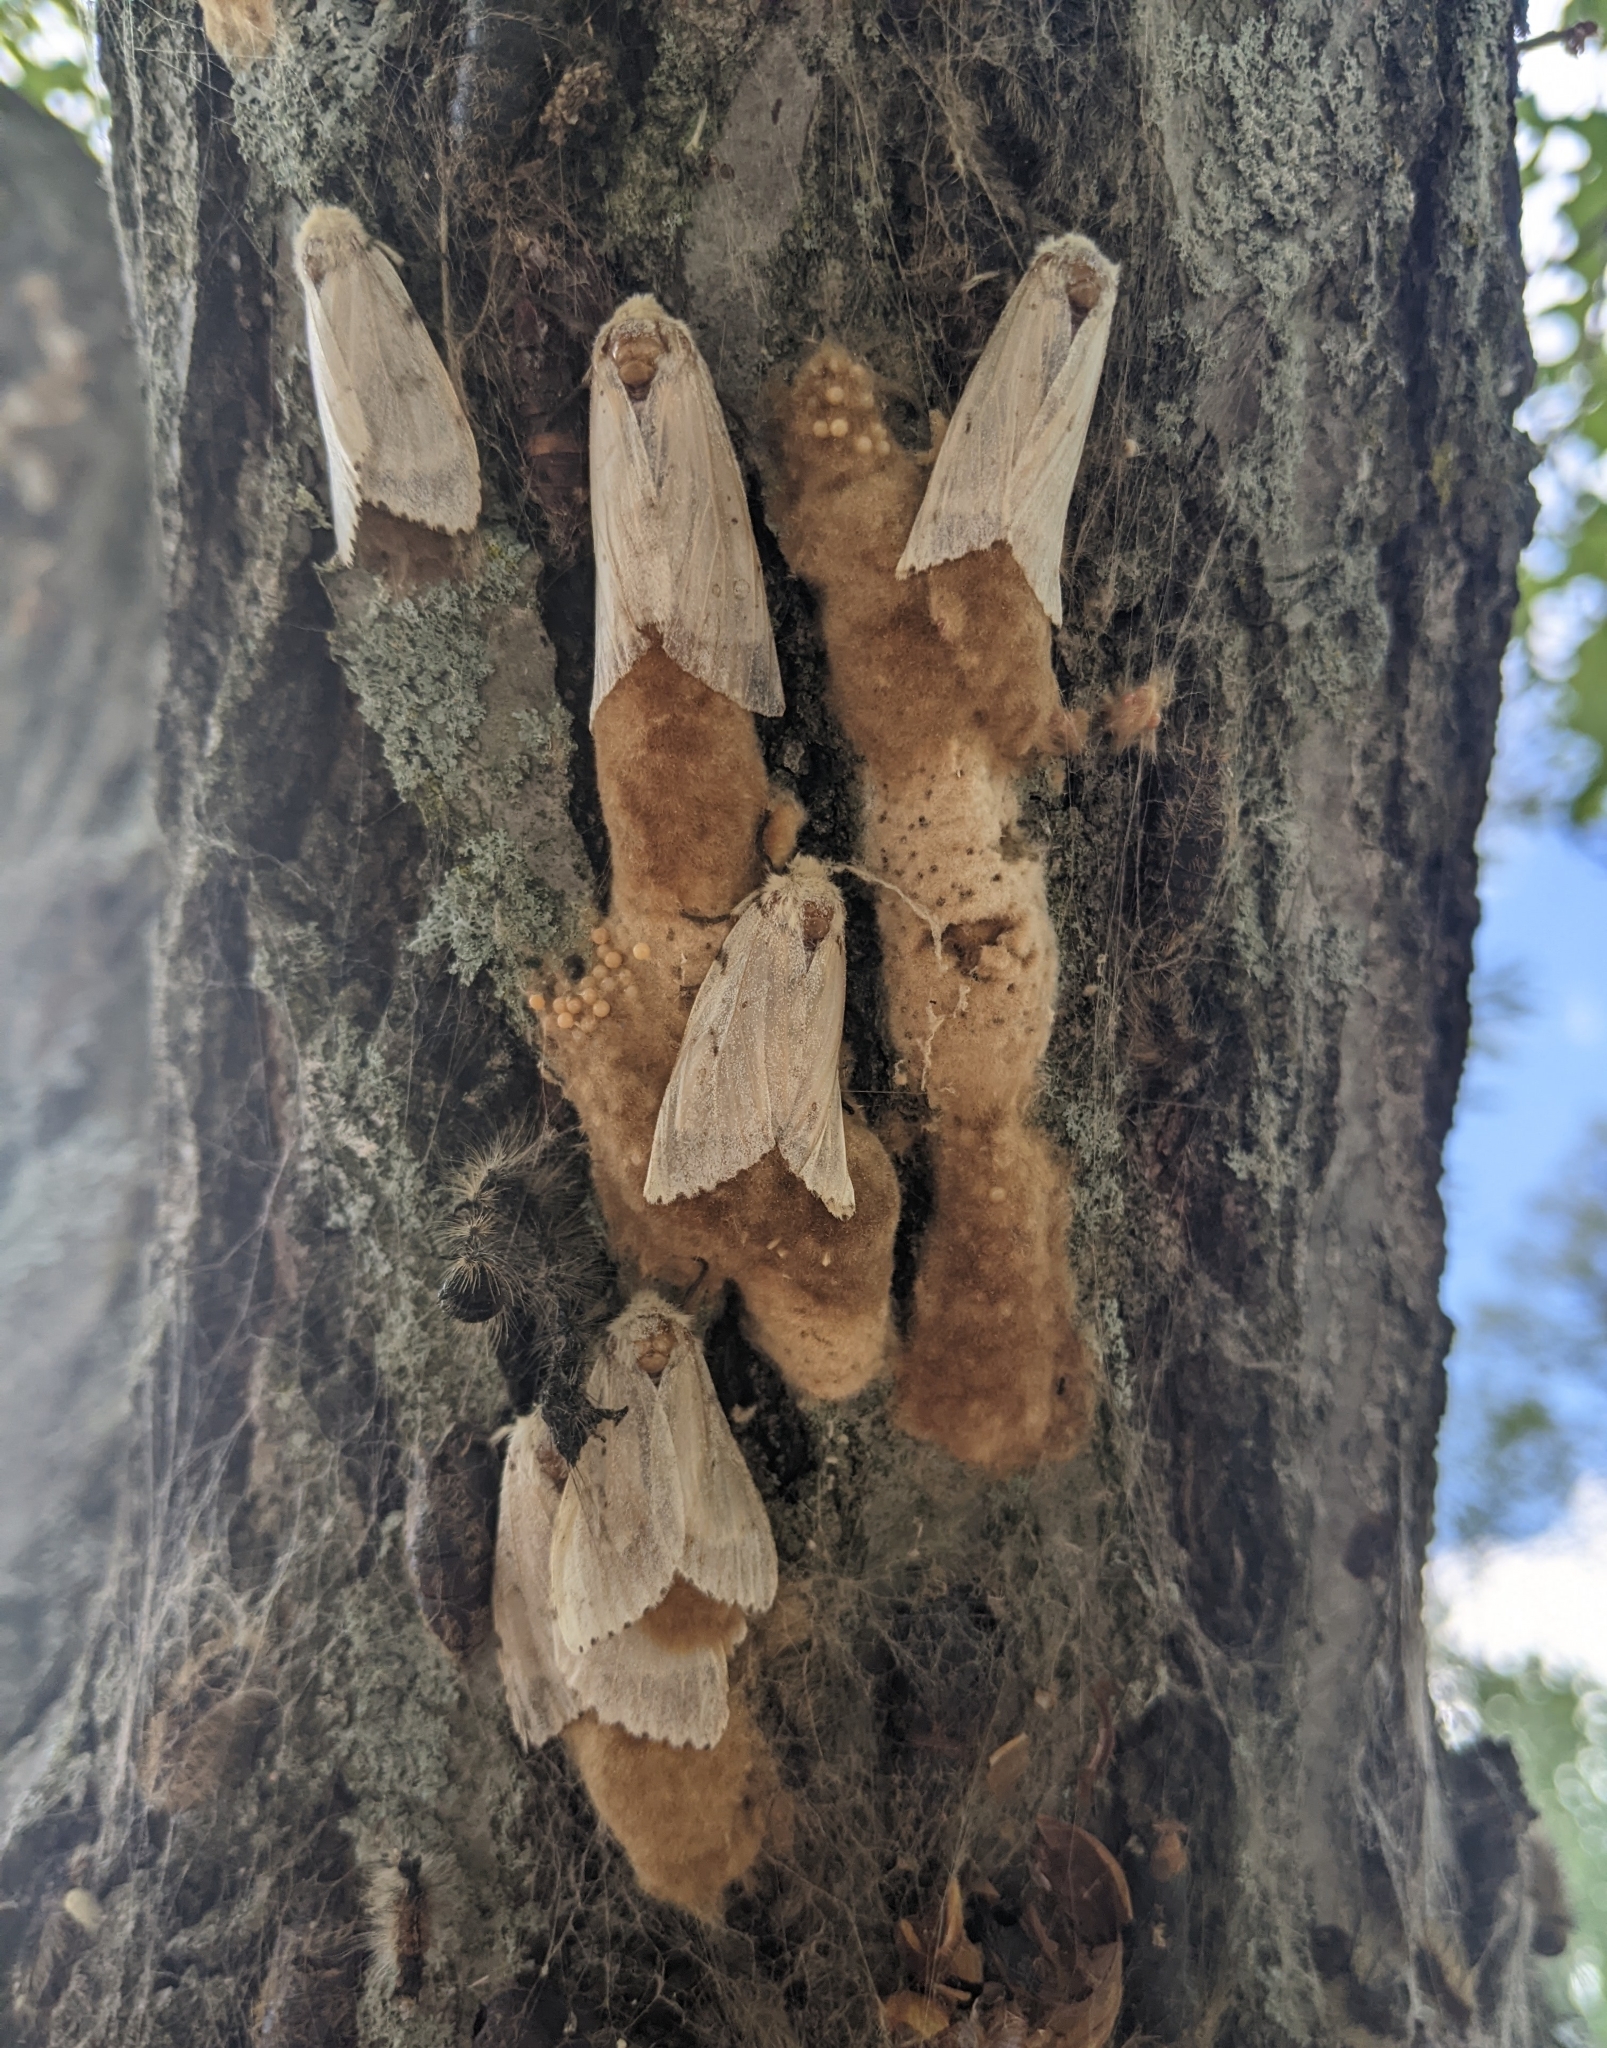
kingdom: Animalia
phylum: Arthropoda
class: Insecta
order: Lepidoptera
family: Erebidae
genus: Lymantria
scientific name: Lymantria dispar
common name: Gypsy moth
